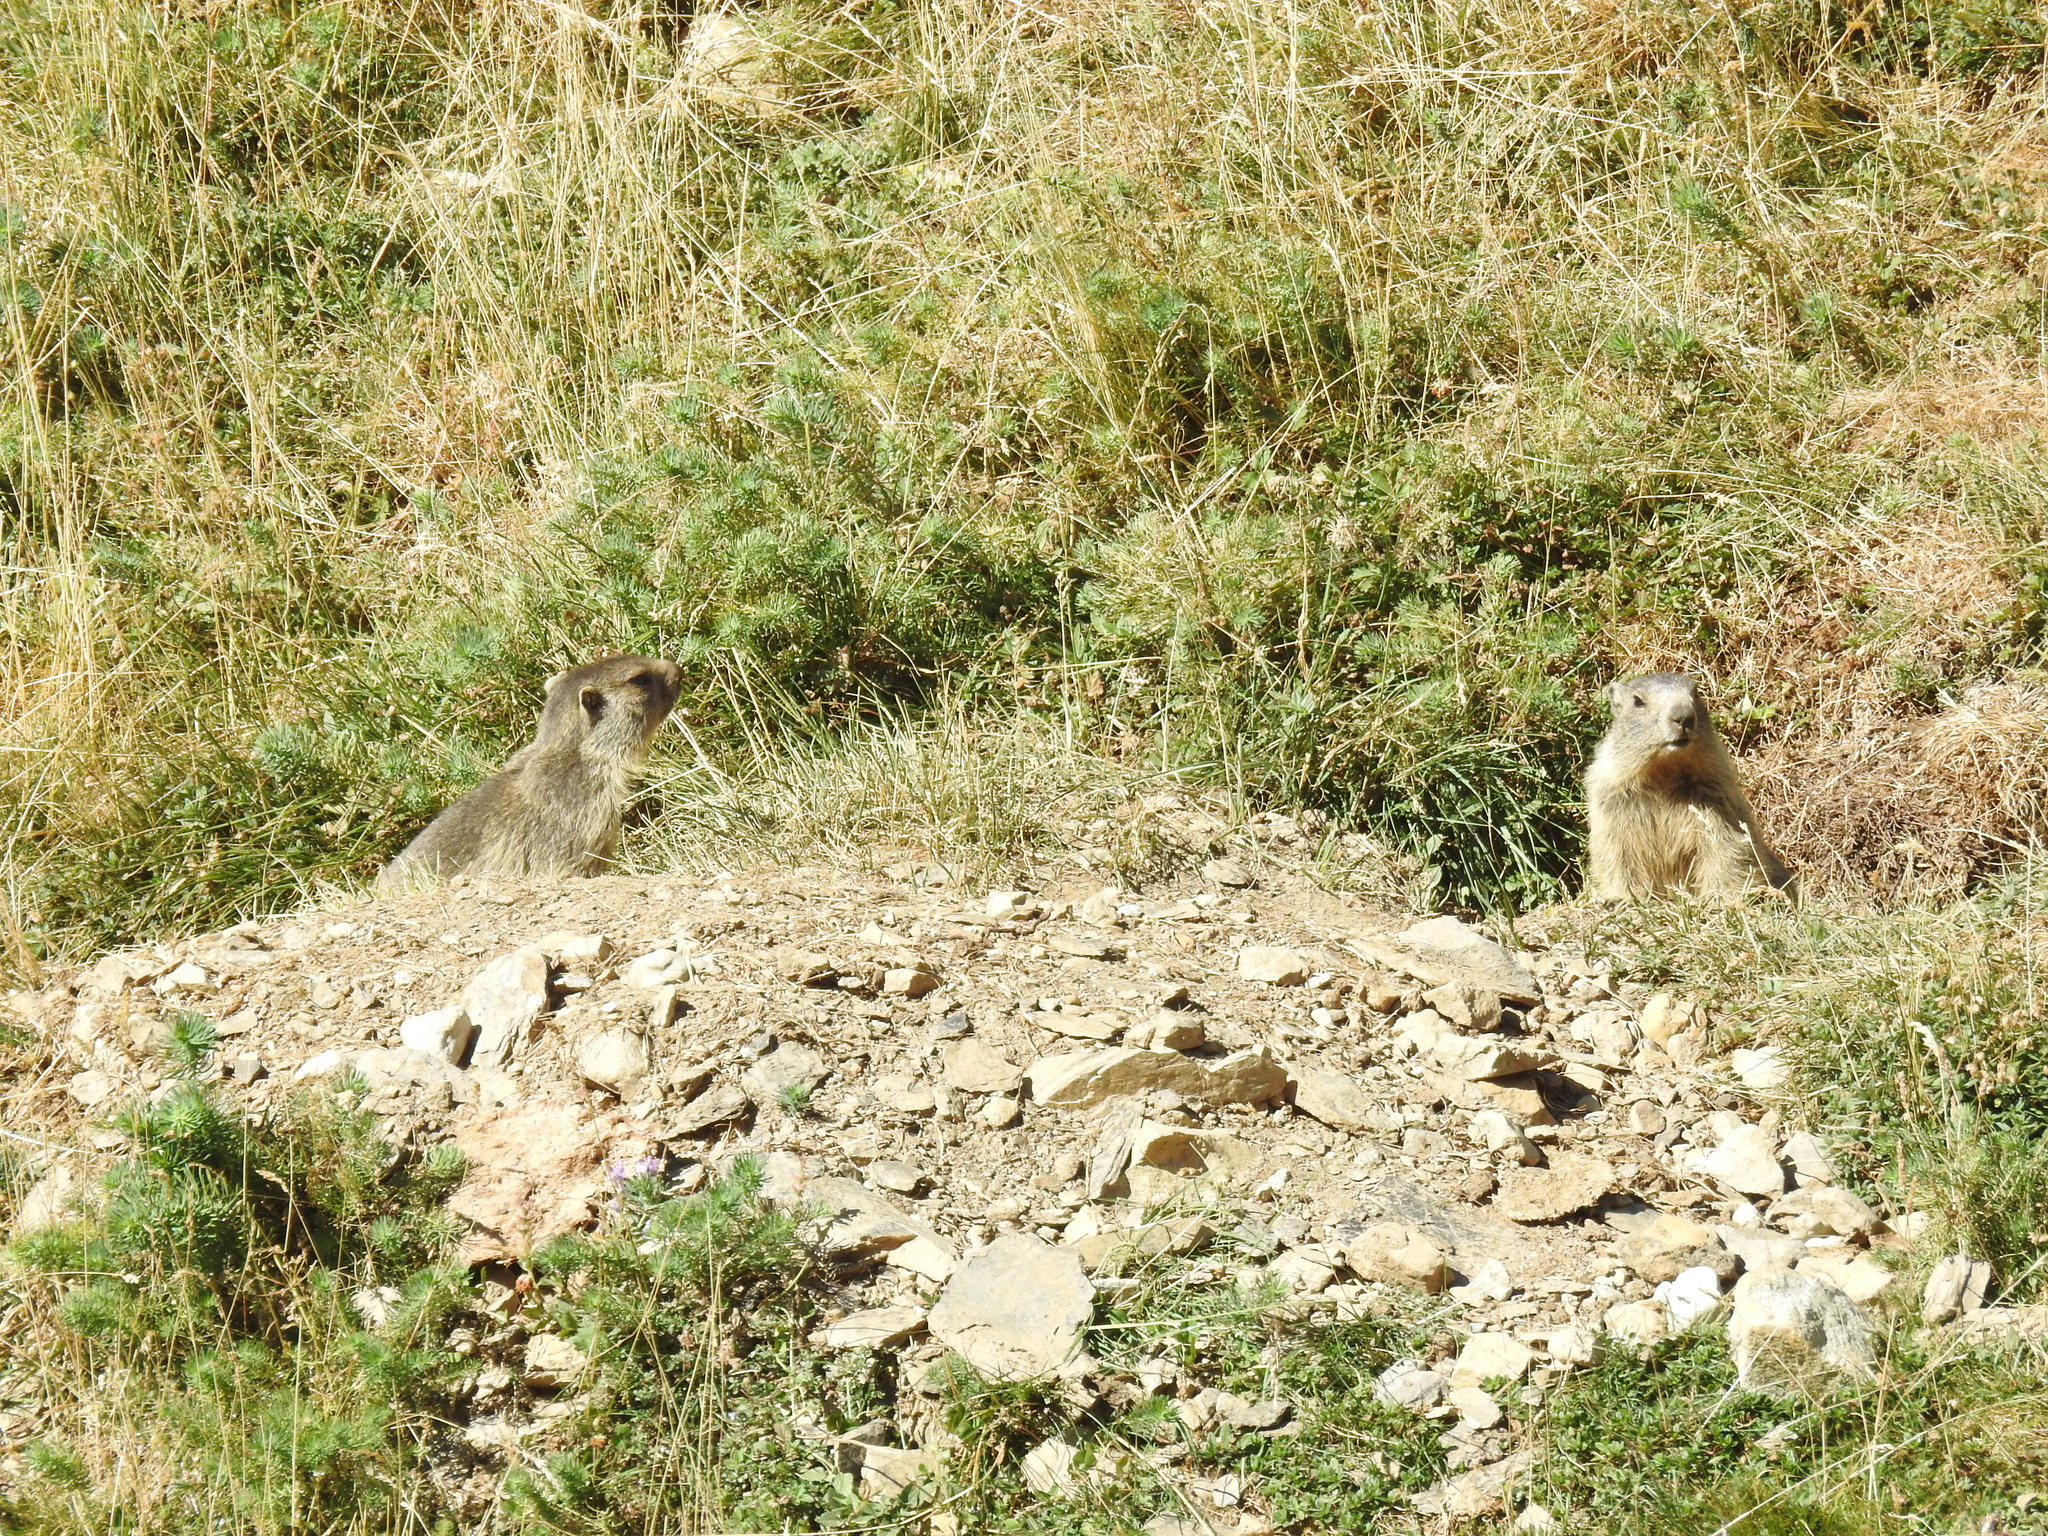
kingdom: Animalia
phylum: Chordata
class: Mammalia
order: Rodentia
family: Sciuridae
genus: Marmota
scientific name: Marmota marmota
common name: Alpine marmot
